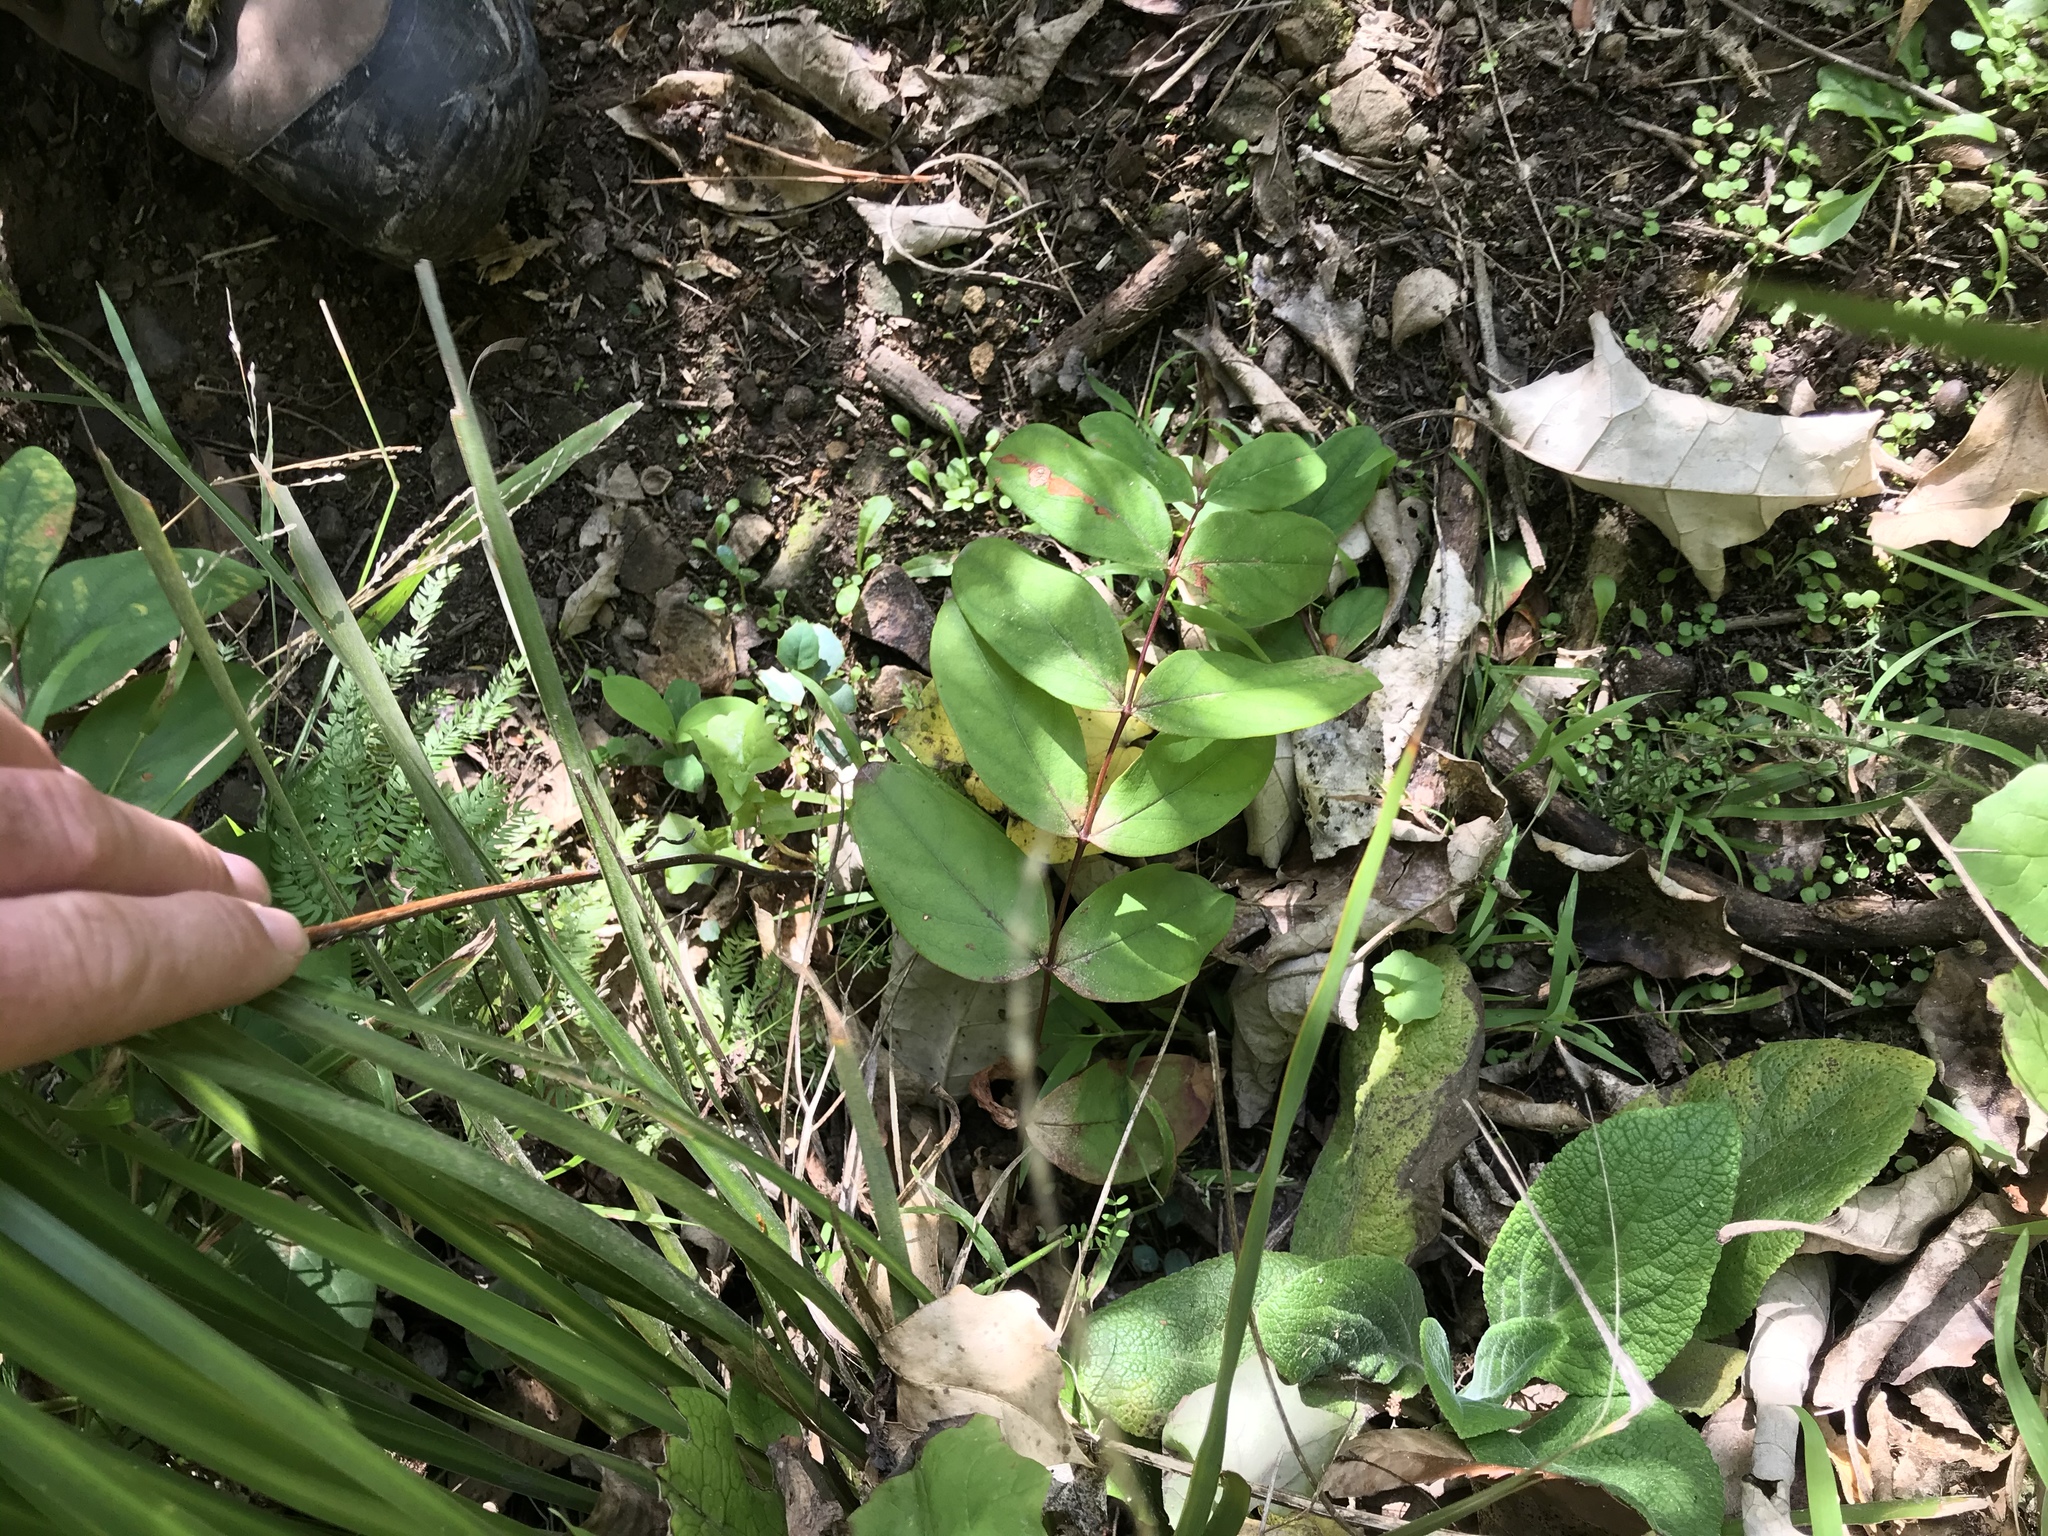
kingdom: Plantae
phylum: Tracheophyta
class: Magnoliopsida
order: Malpighiales
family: Hypericaceae
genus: Hypericum
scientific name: Hypericum androsaemum
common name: Sweet-amber
